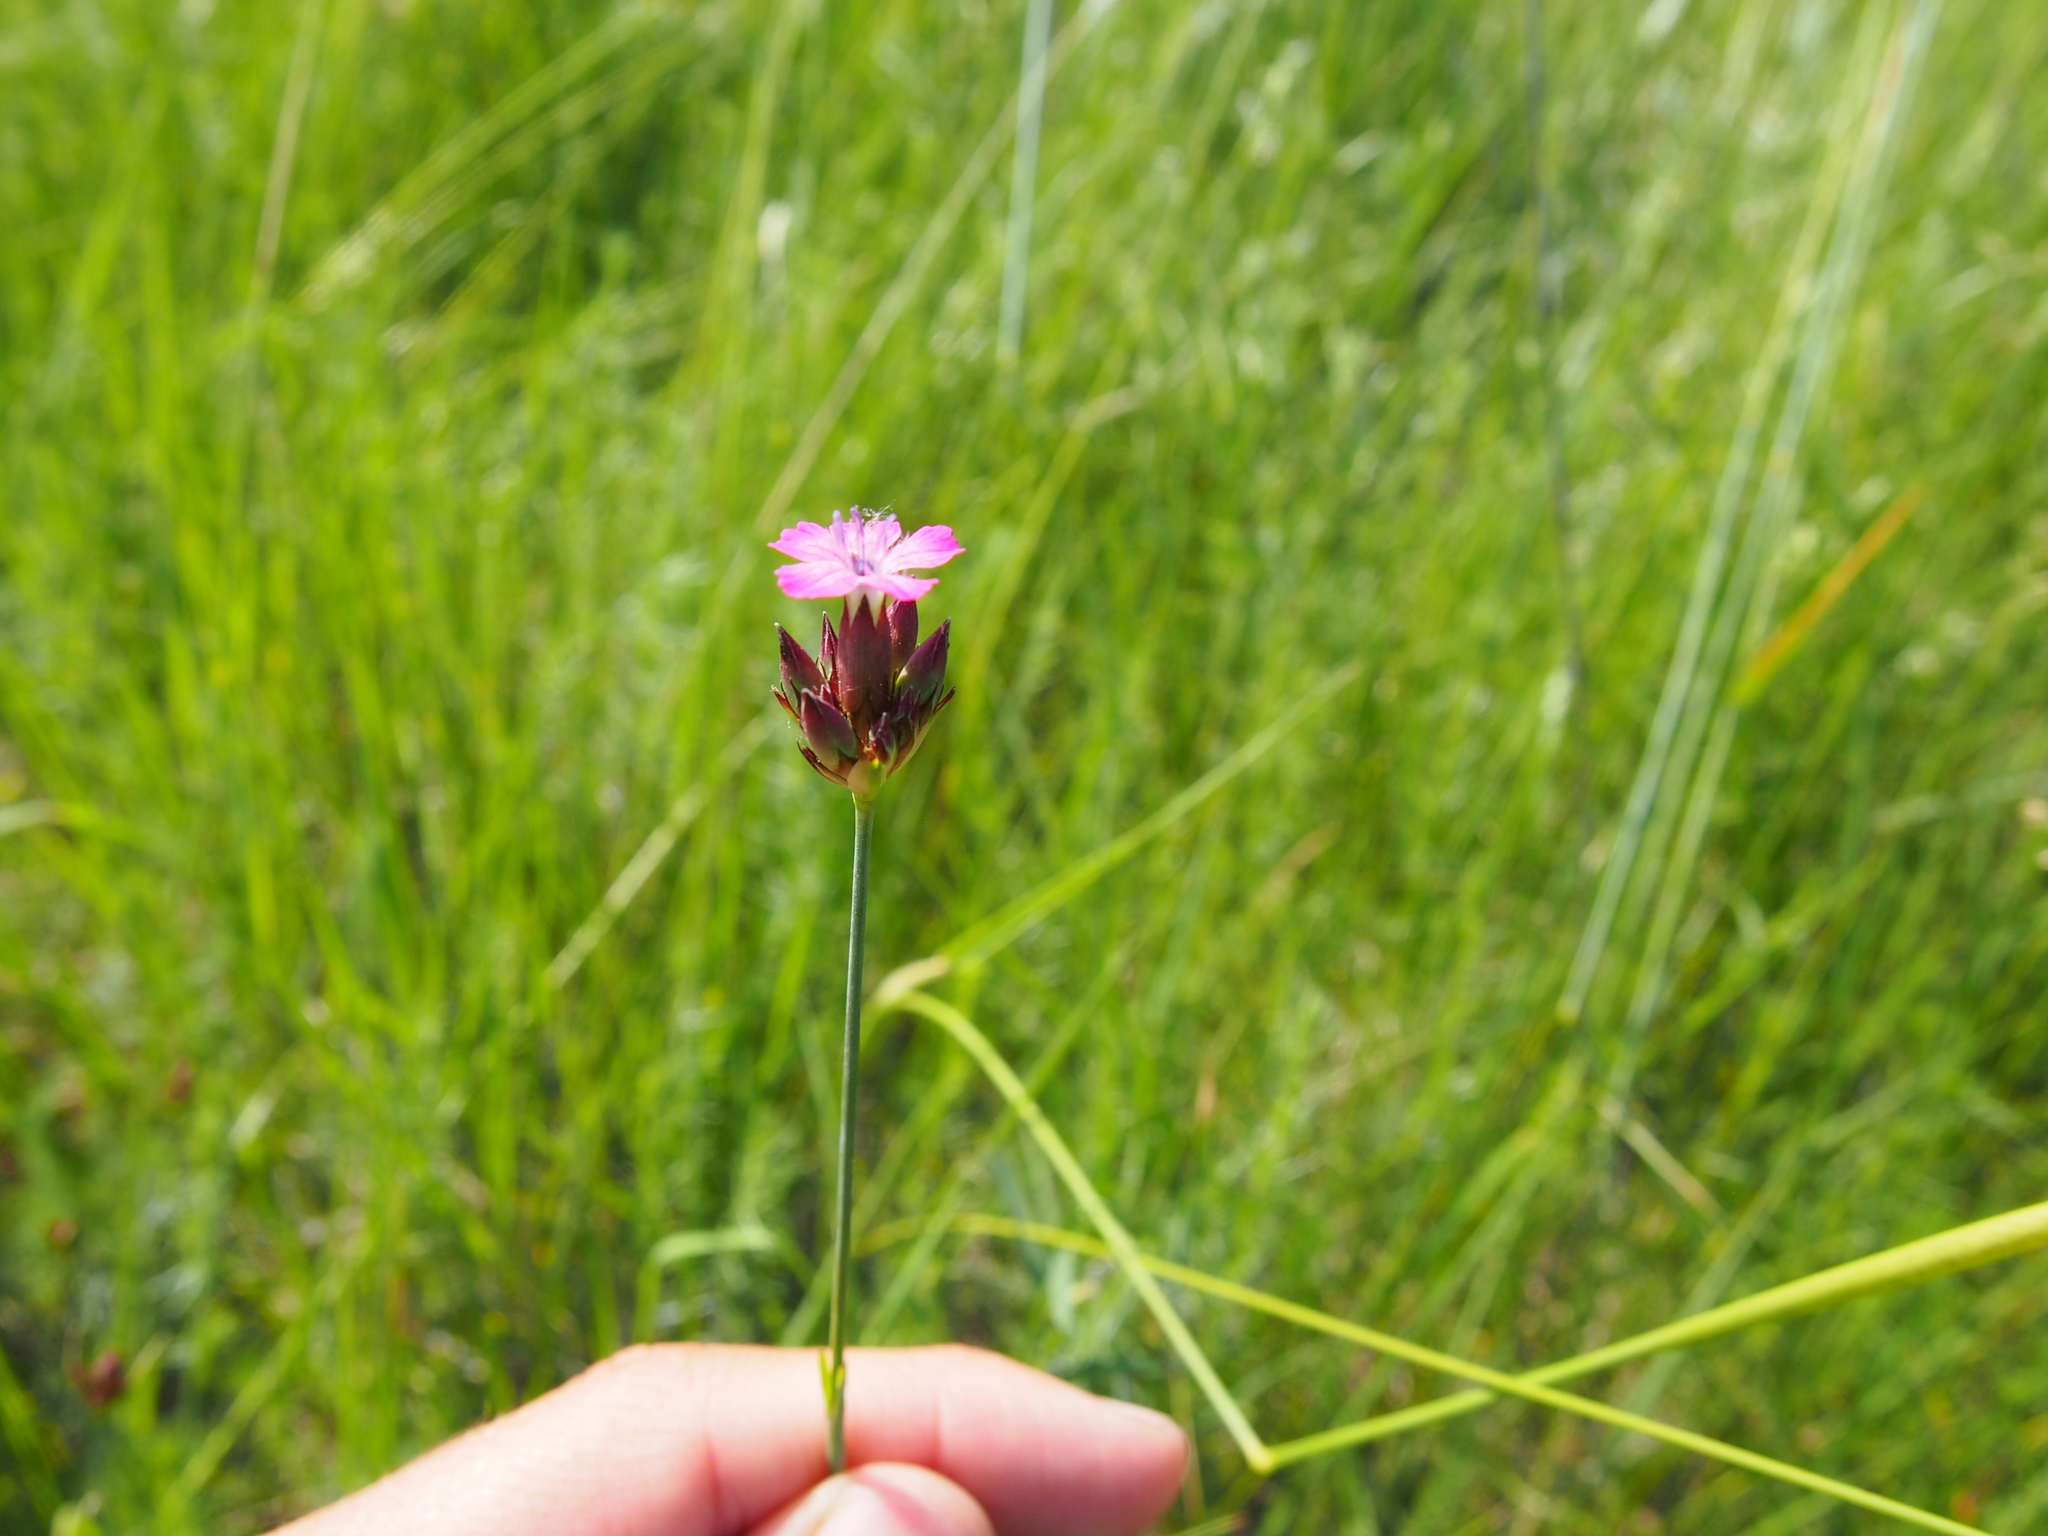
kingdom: Plantae
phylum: Tracheophyta
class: Magnoliopsida
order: Caryophyllales
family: Caryophyllaceae
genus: Dianthus
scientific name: Dianthus pontederae
